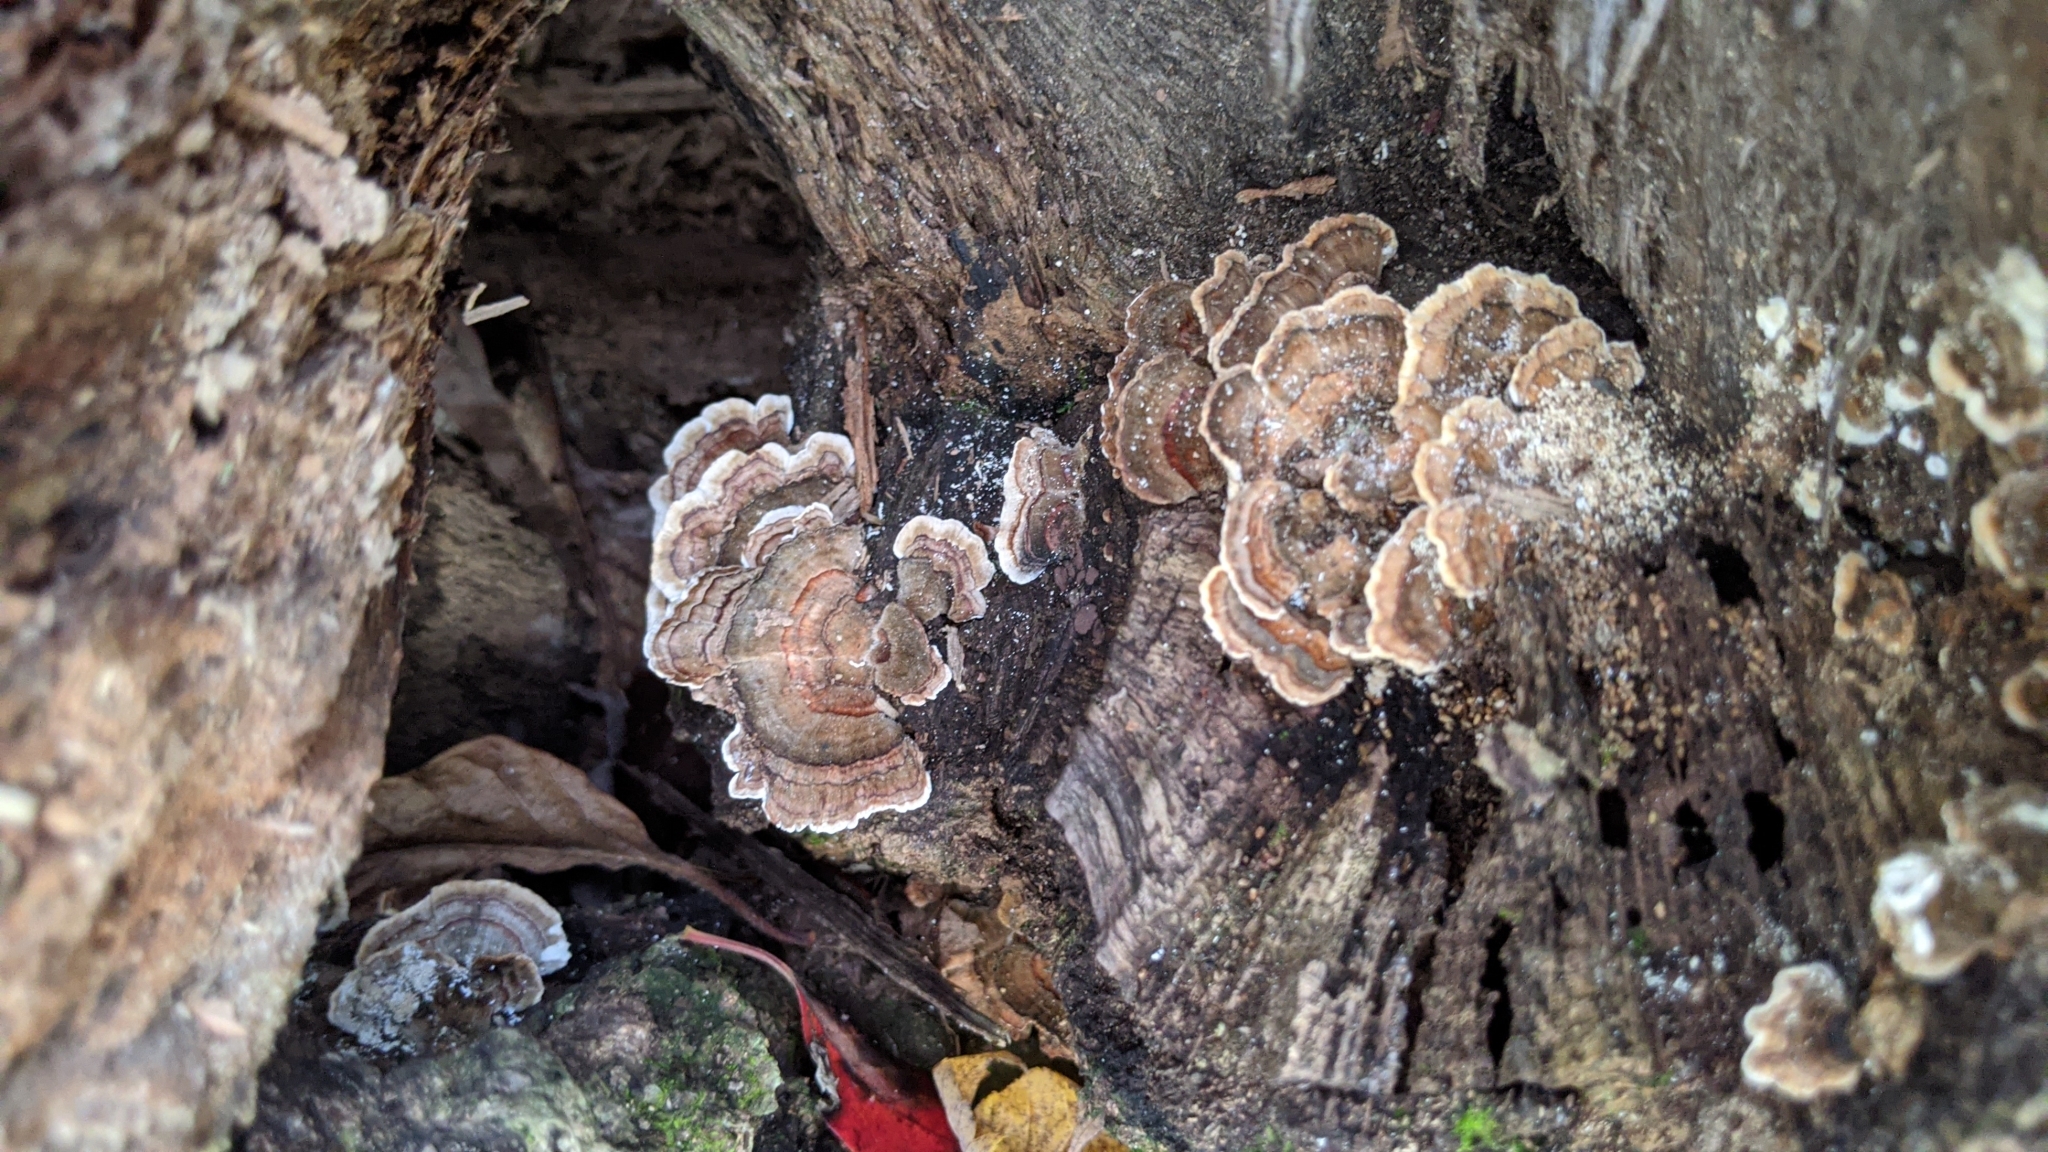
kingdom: Fungi
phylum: Basidiomycota
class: Agaricomycetes
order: Polyporales
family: Polyporaceae
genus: Trametes
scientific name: Trametes versicolor
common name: Turkeytail
